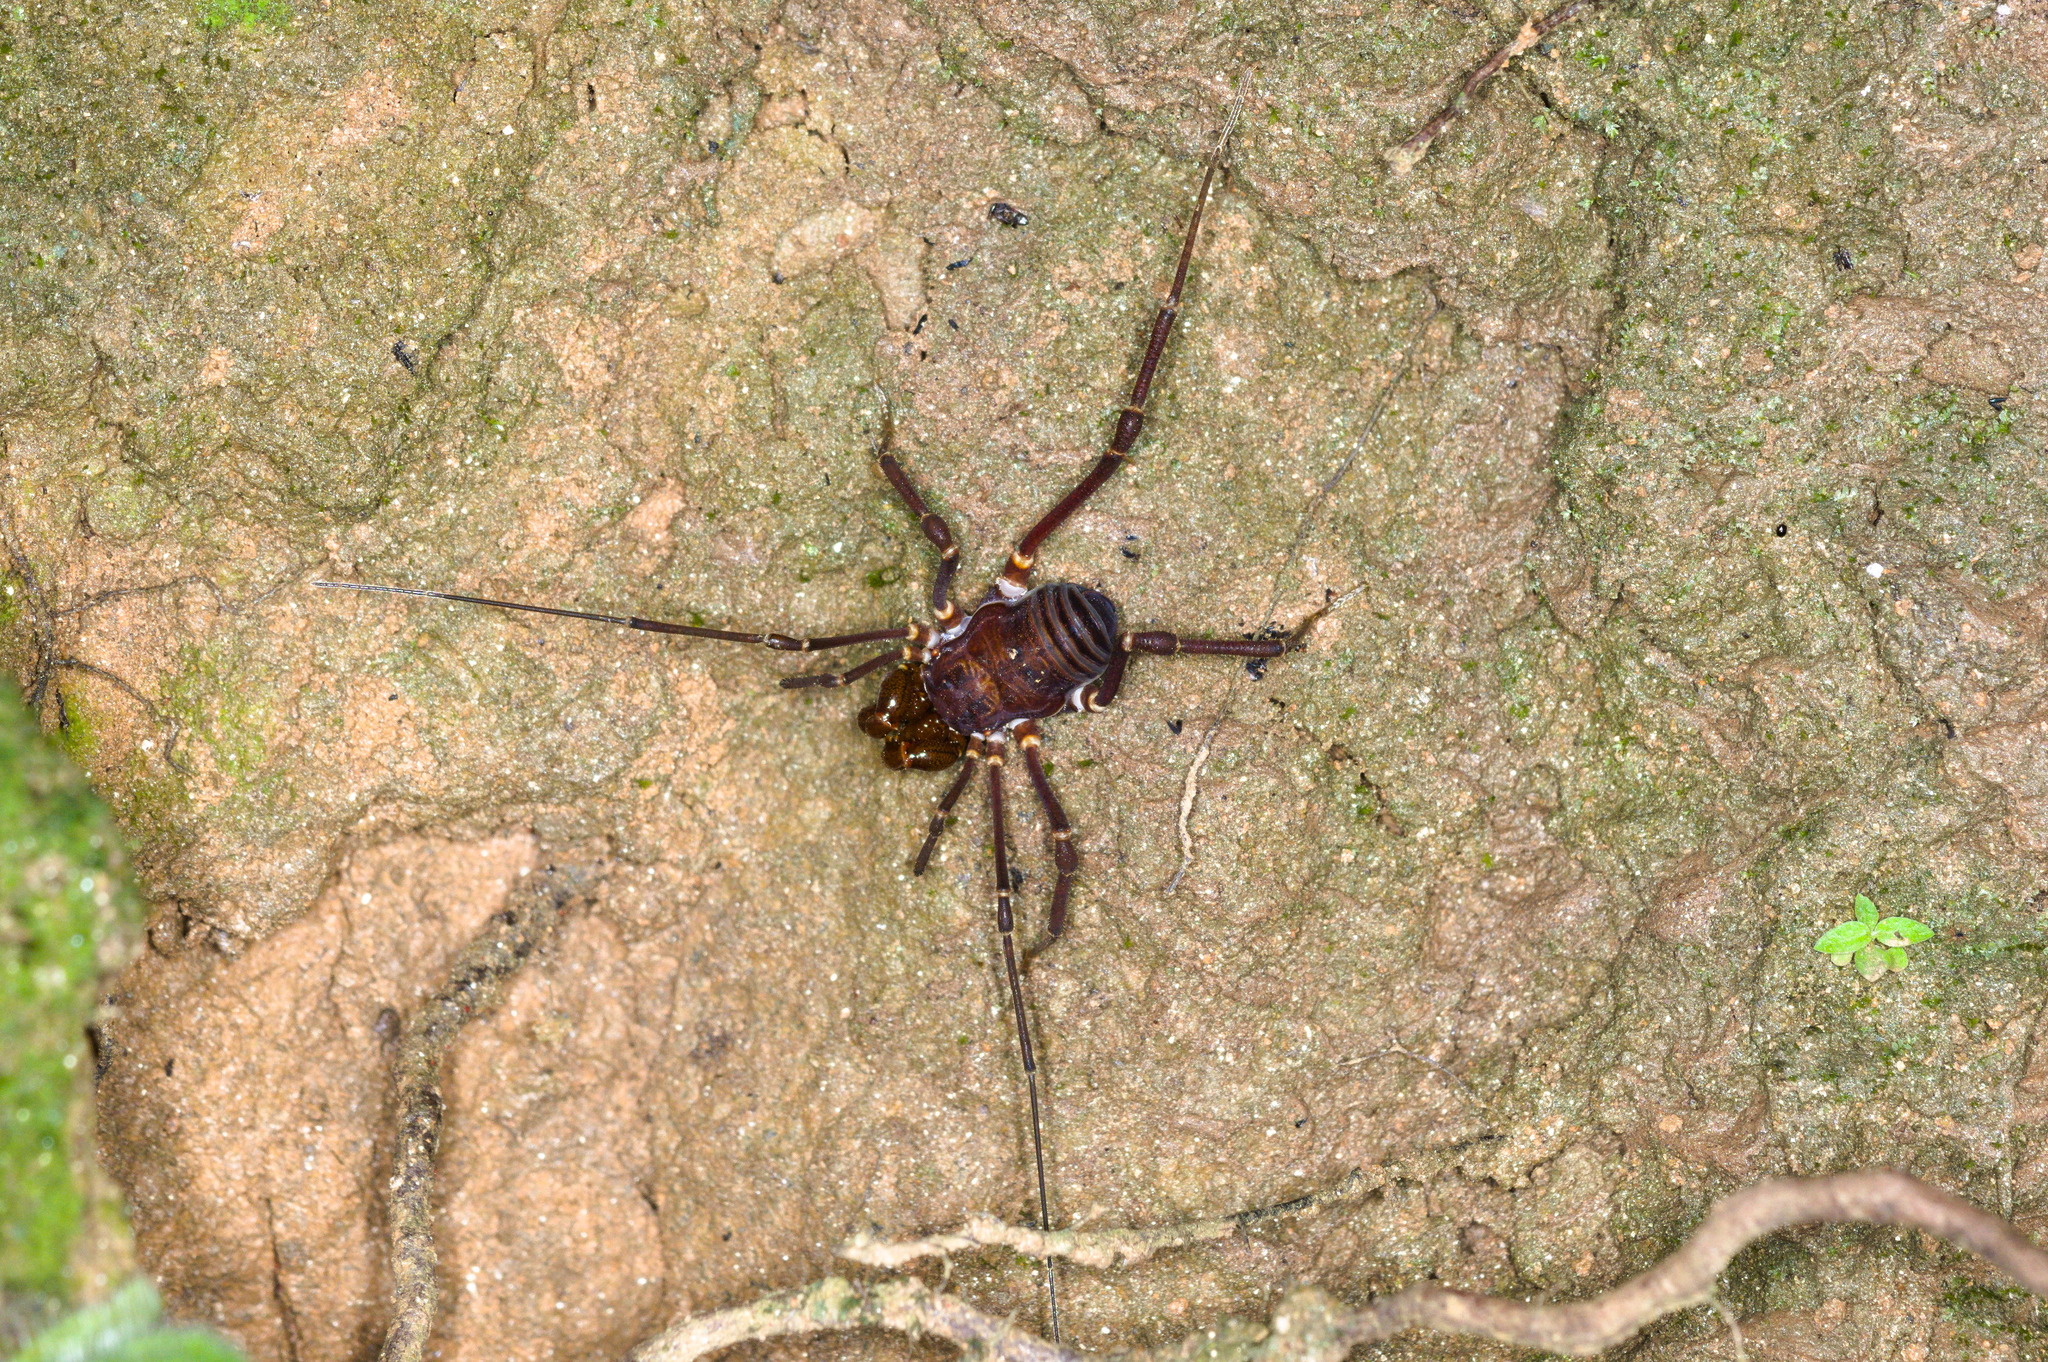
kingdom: Animalia
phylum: Arthropoda
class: Arachnida
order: Opiliones
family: Cranaidae
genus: Phalangodus
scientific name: Phalangodus kuryi
